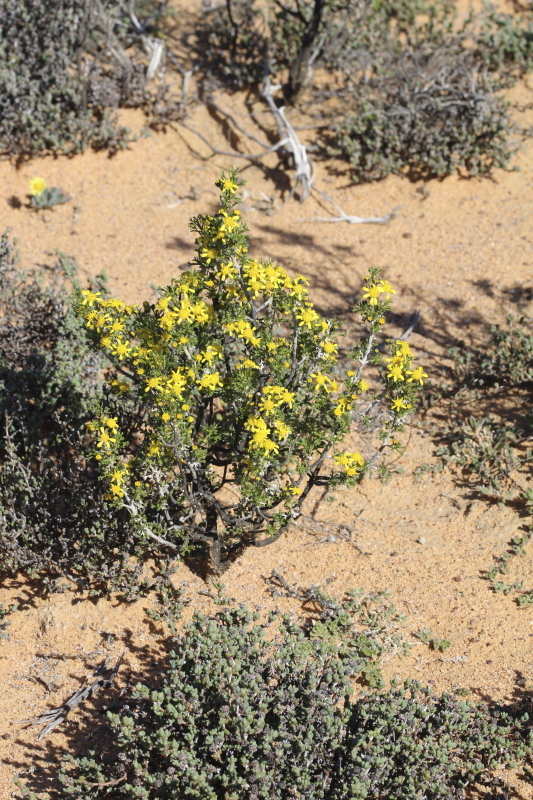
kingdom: Plantae
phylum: Tracheophyta
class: Magnoliopsida
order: Asterales
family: Asteraceae
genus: Euryops
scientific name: Euryops multifidus
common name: Hawk's eye
